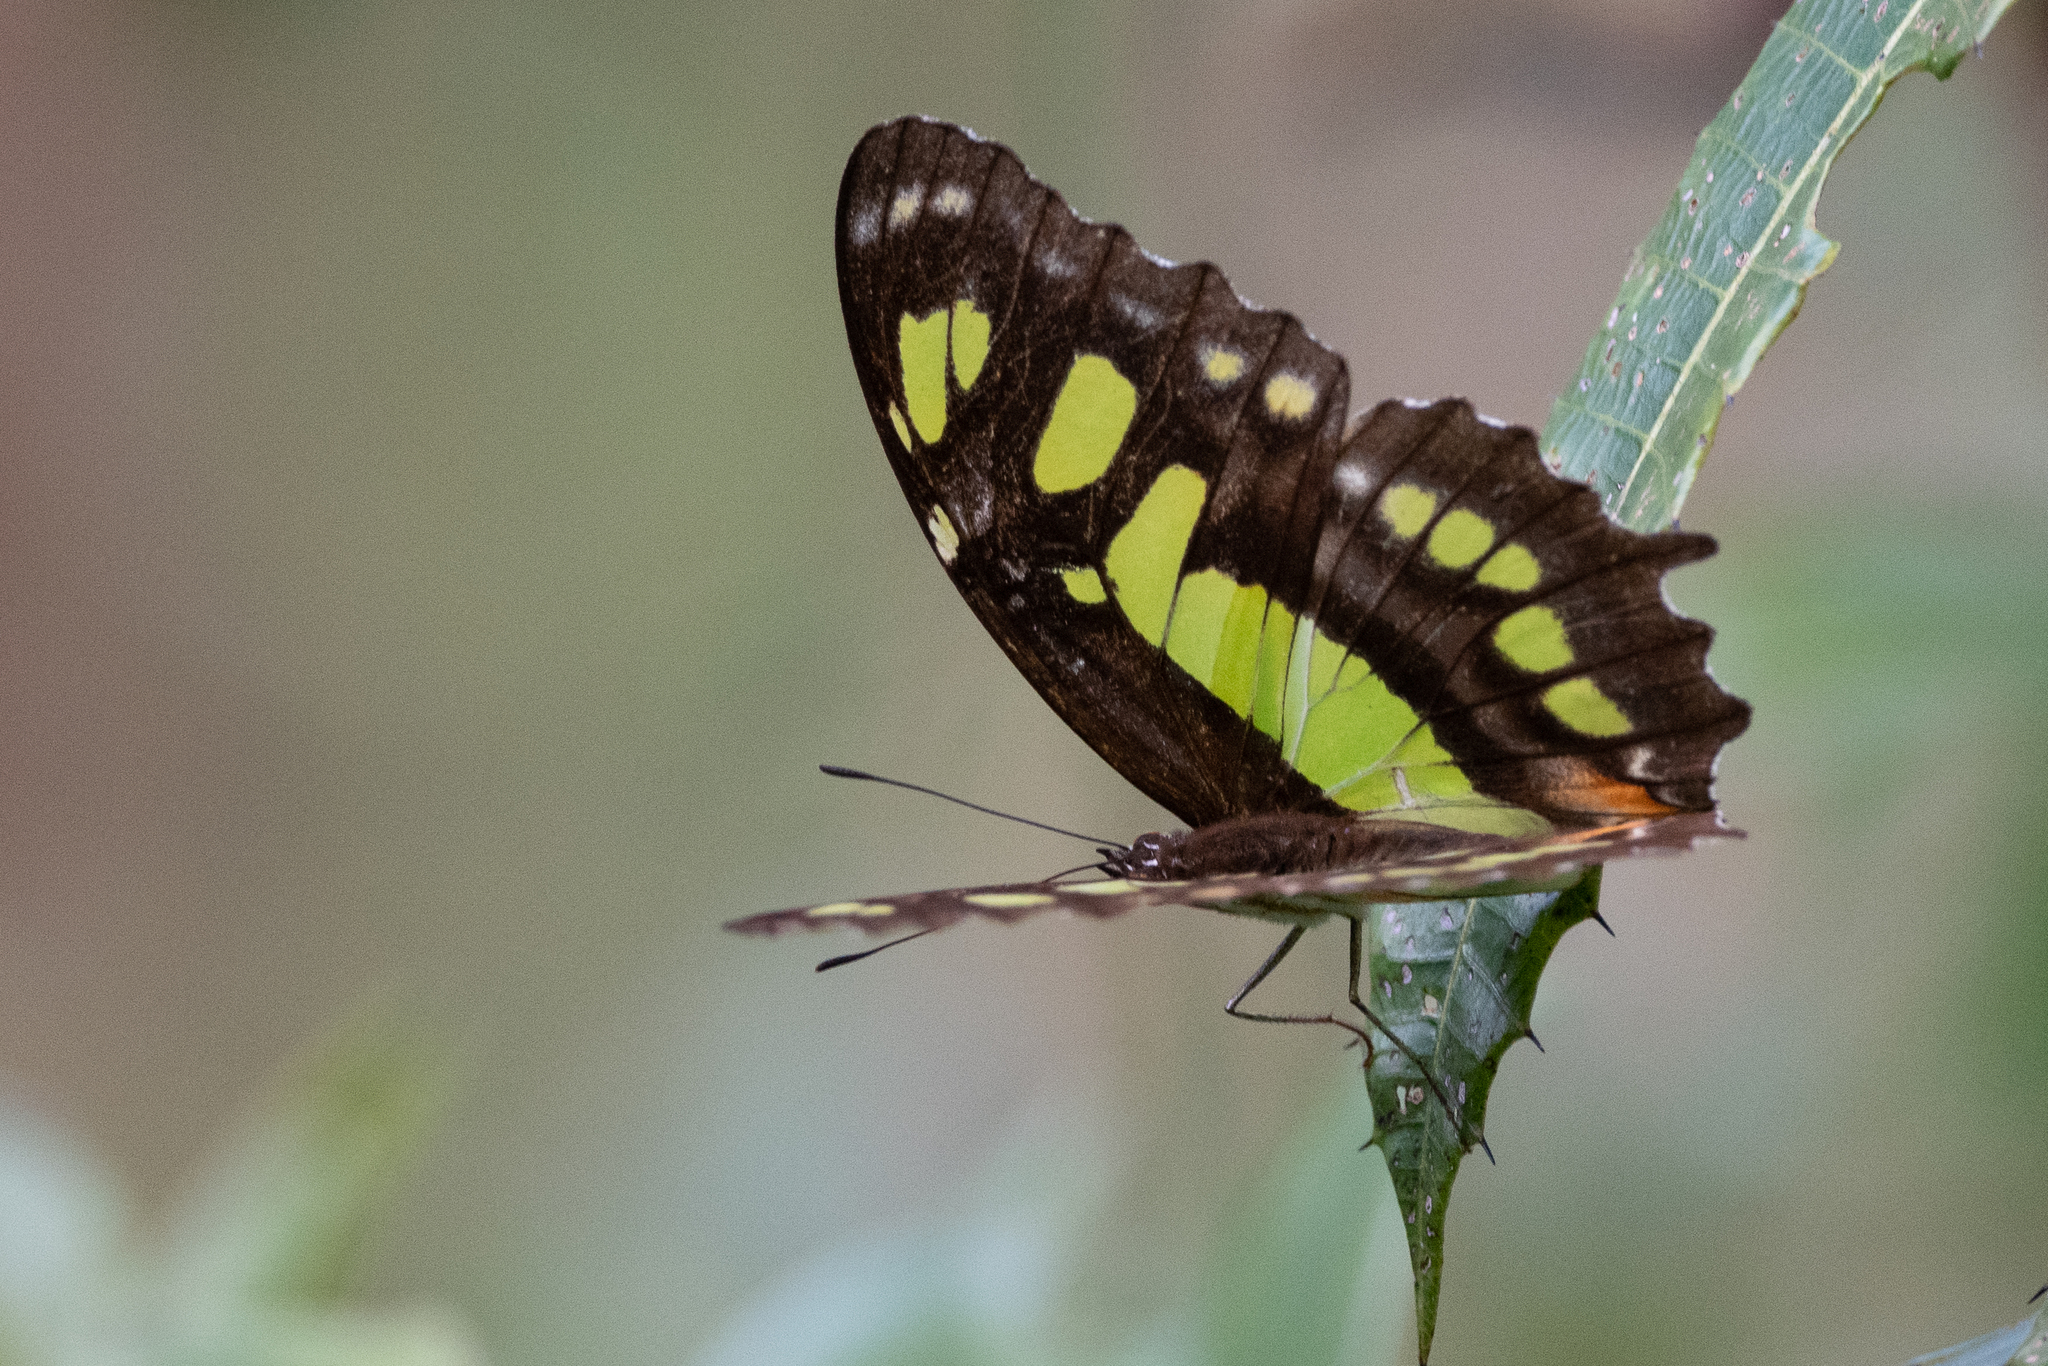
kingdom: Animalia
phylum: Arthropoda
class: Insecta
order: Lepidoptera
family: Nymphalidae
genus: Siproeta
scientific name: Siproeta stelenes
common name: Malachite
